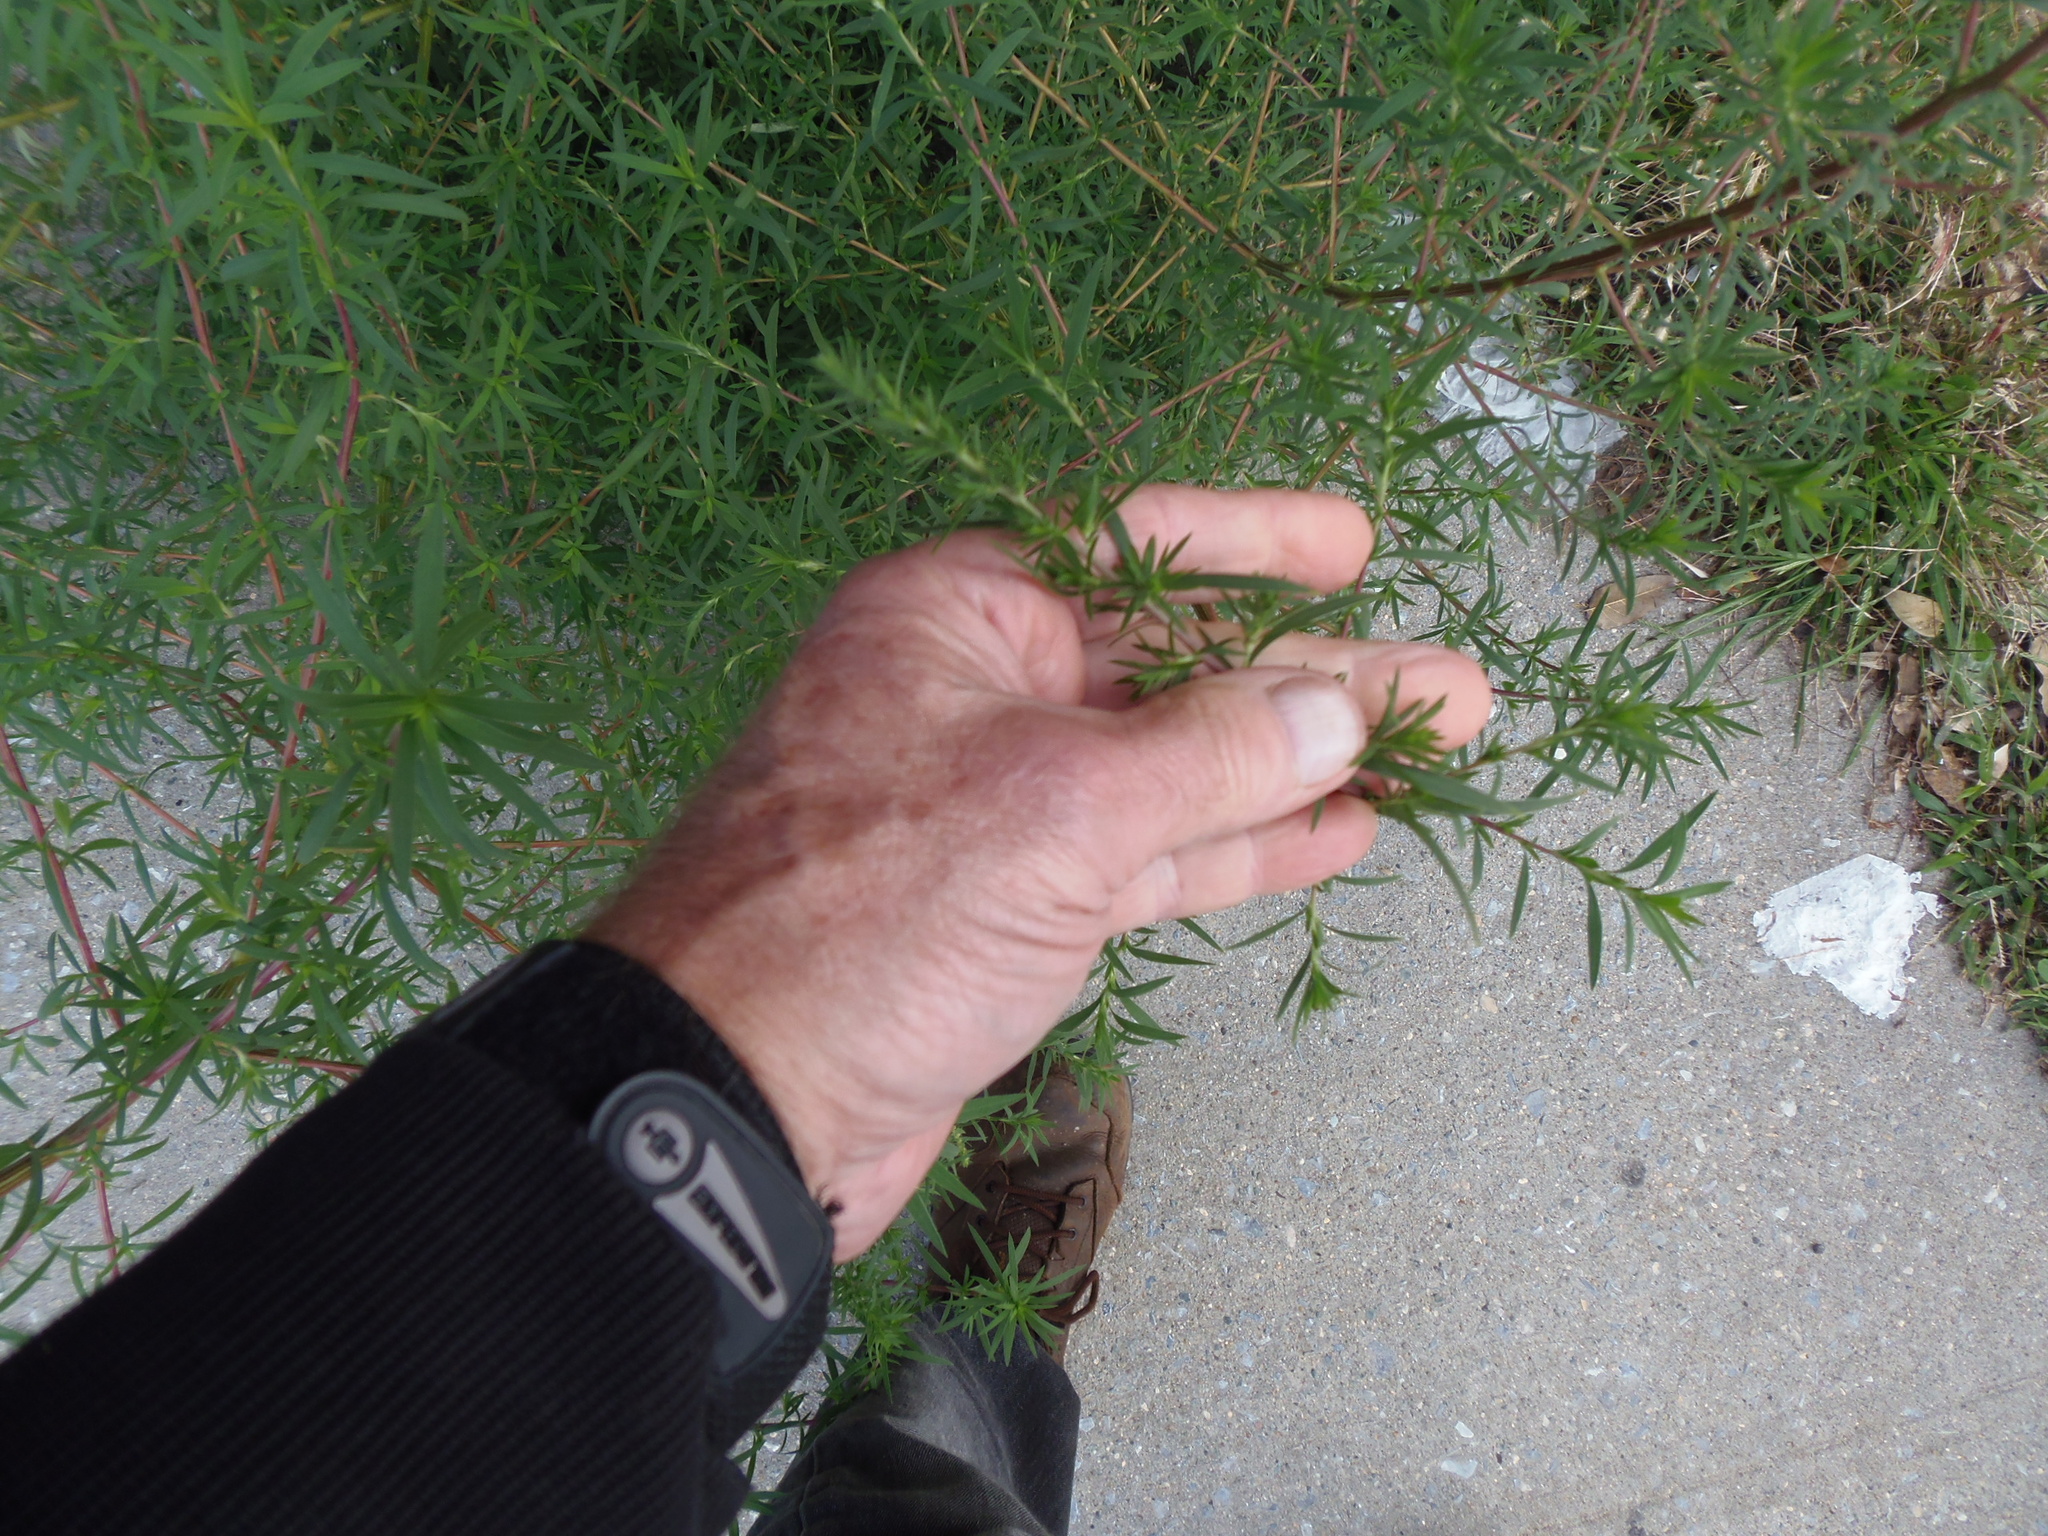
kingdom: Plantae
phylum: Tracheophyta
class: Magnoliopsida
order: Lamiales
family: Lamiaceae
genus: Pycnanthemum
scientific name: Pycnanthemum tenuifolium
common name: Narrow-leaf mountain-mint
